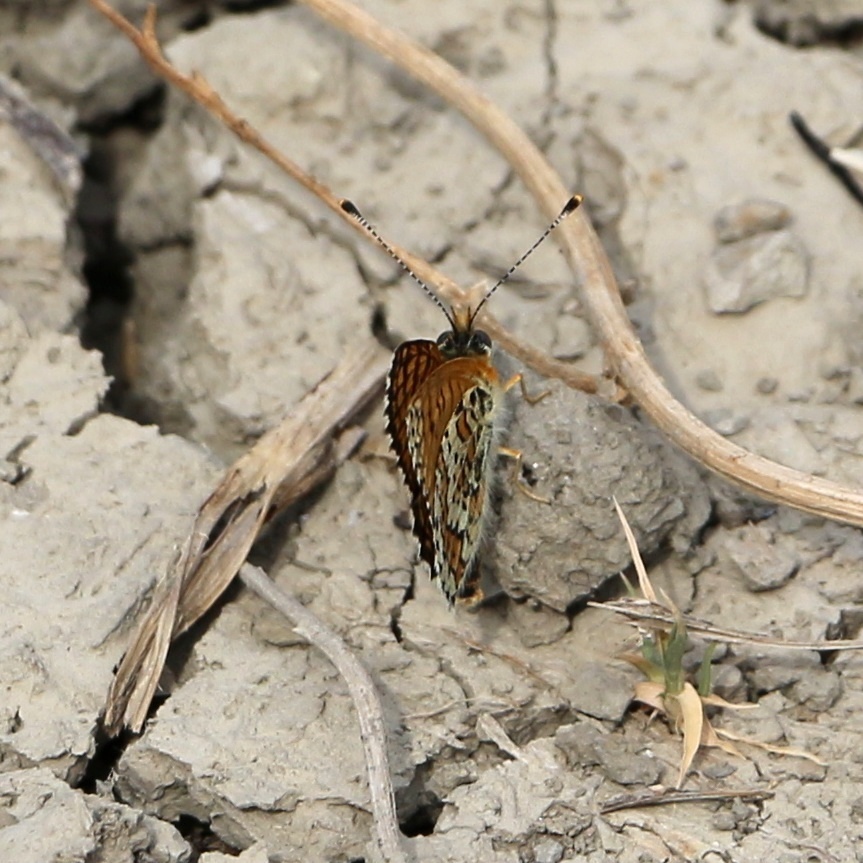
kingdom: Animalia
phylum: Arthropoda
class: Insecta
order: Lepidoptera
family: Nymphalidae
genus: Melitaea
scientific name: Melitaea cinxia
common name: Glanville fritillary
